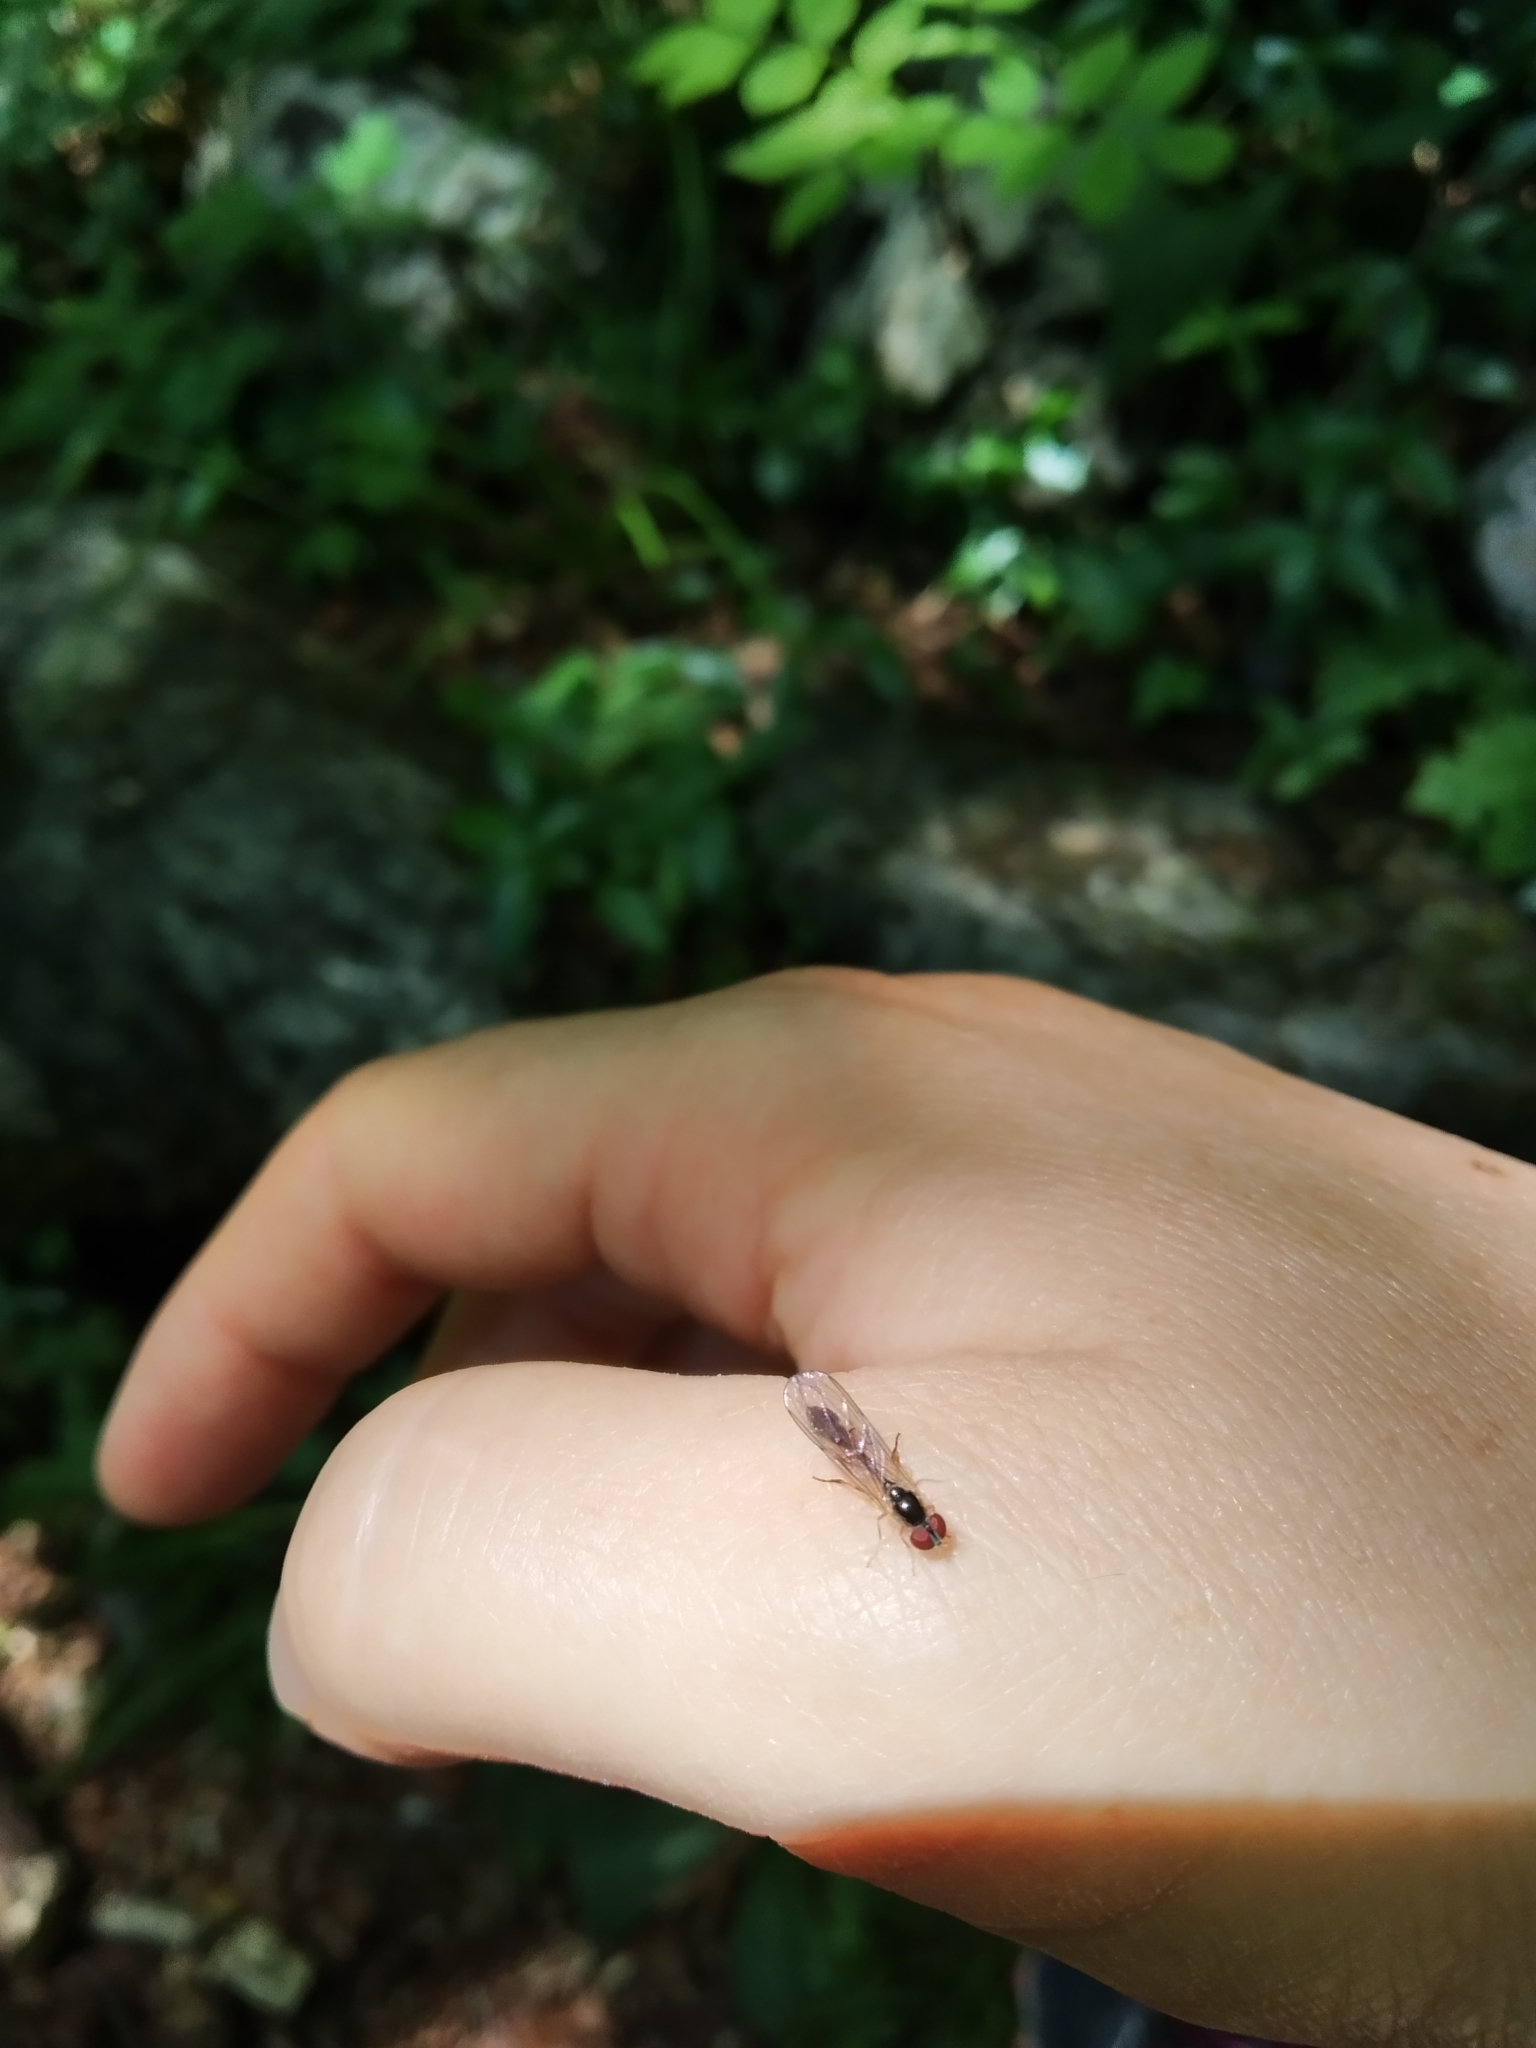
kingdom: Animalia
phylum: Arthropoda
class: Insecta
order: Diptera
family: Syrphidae
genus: Baccha
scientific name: Baccha elongata
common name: Common dainty
